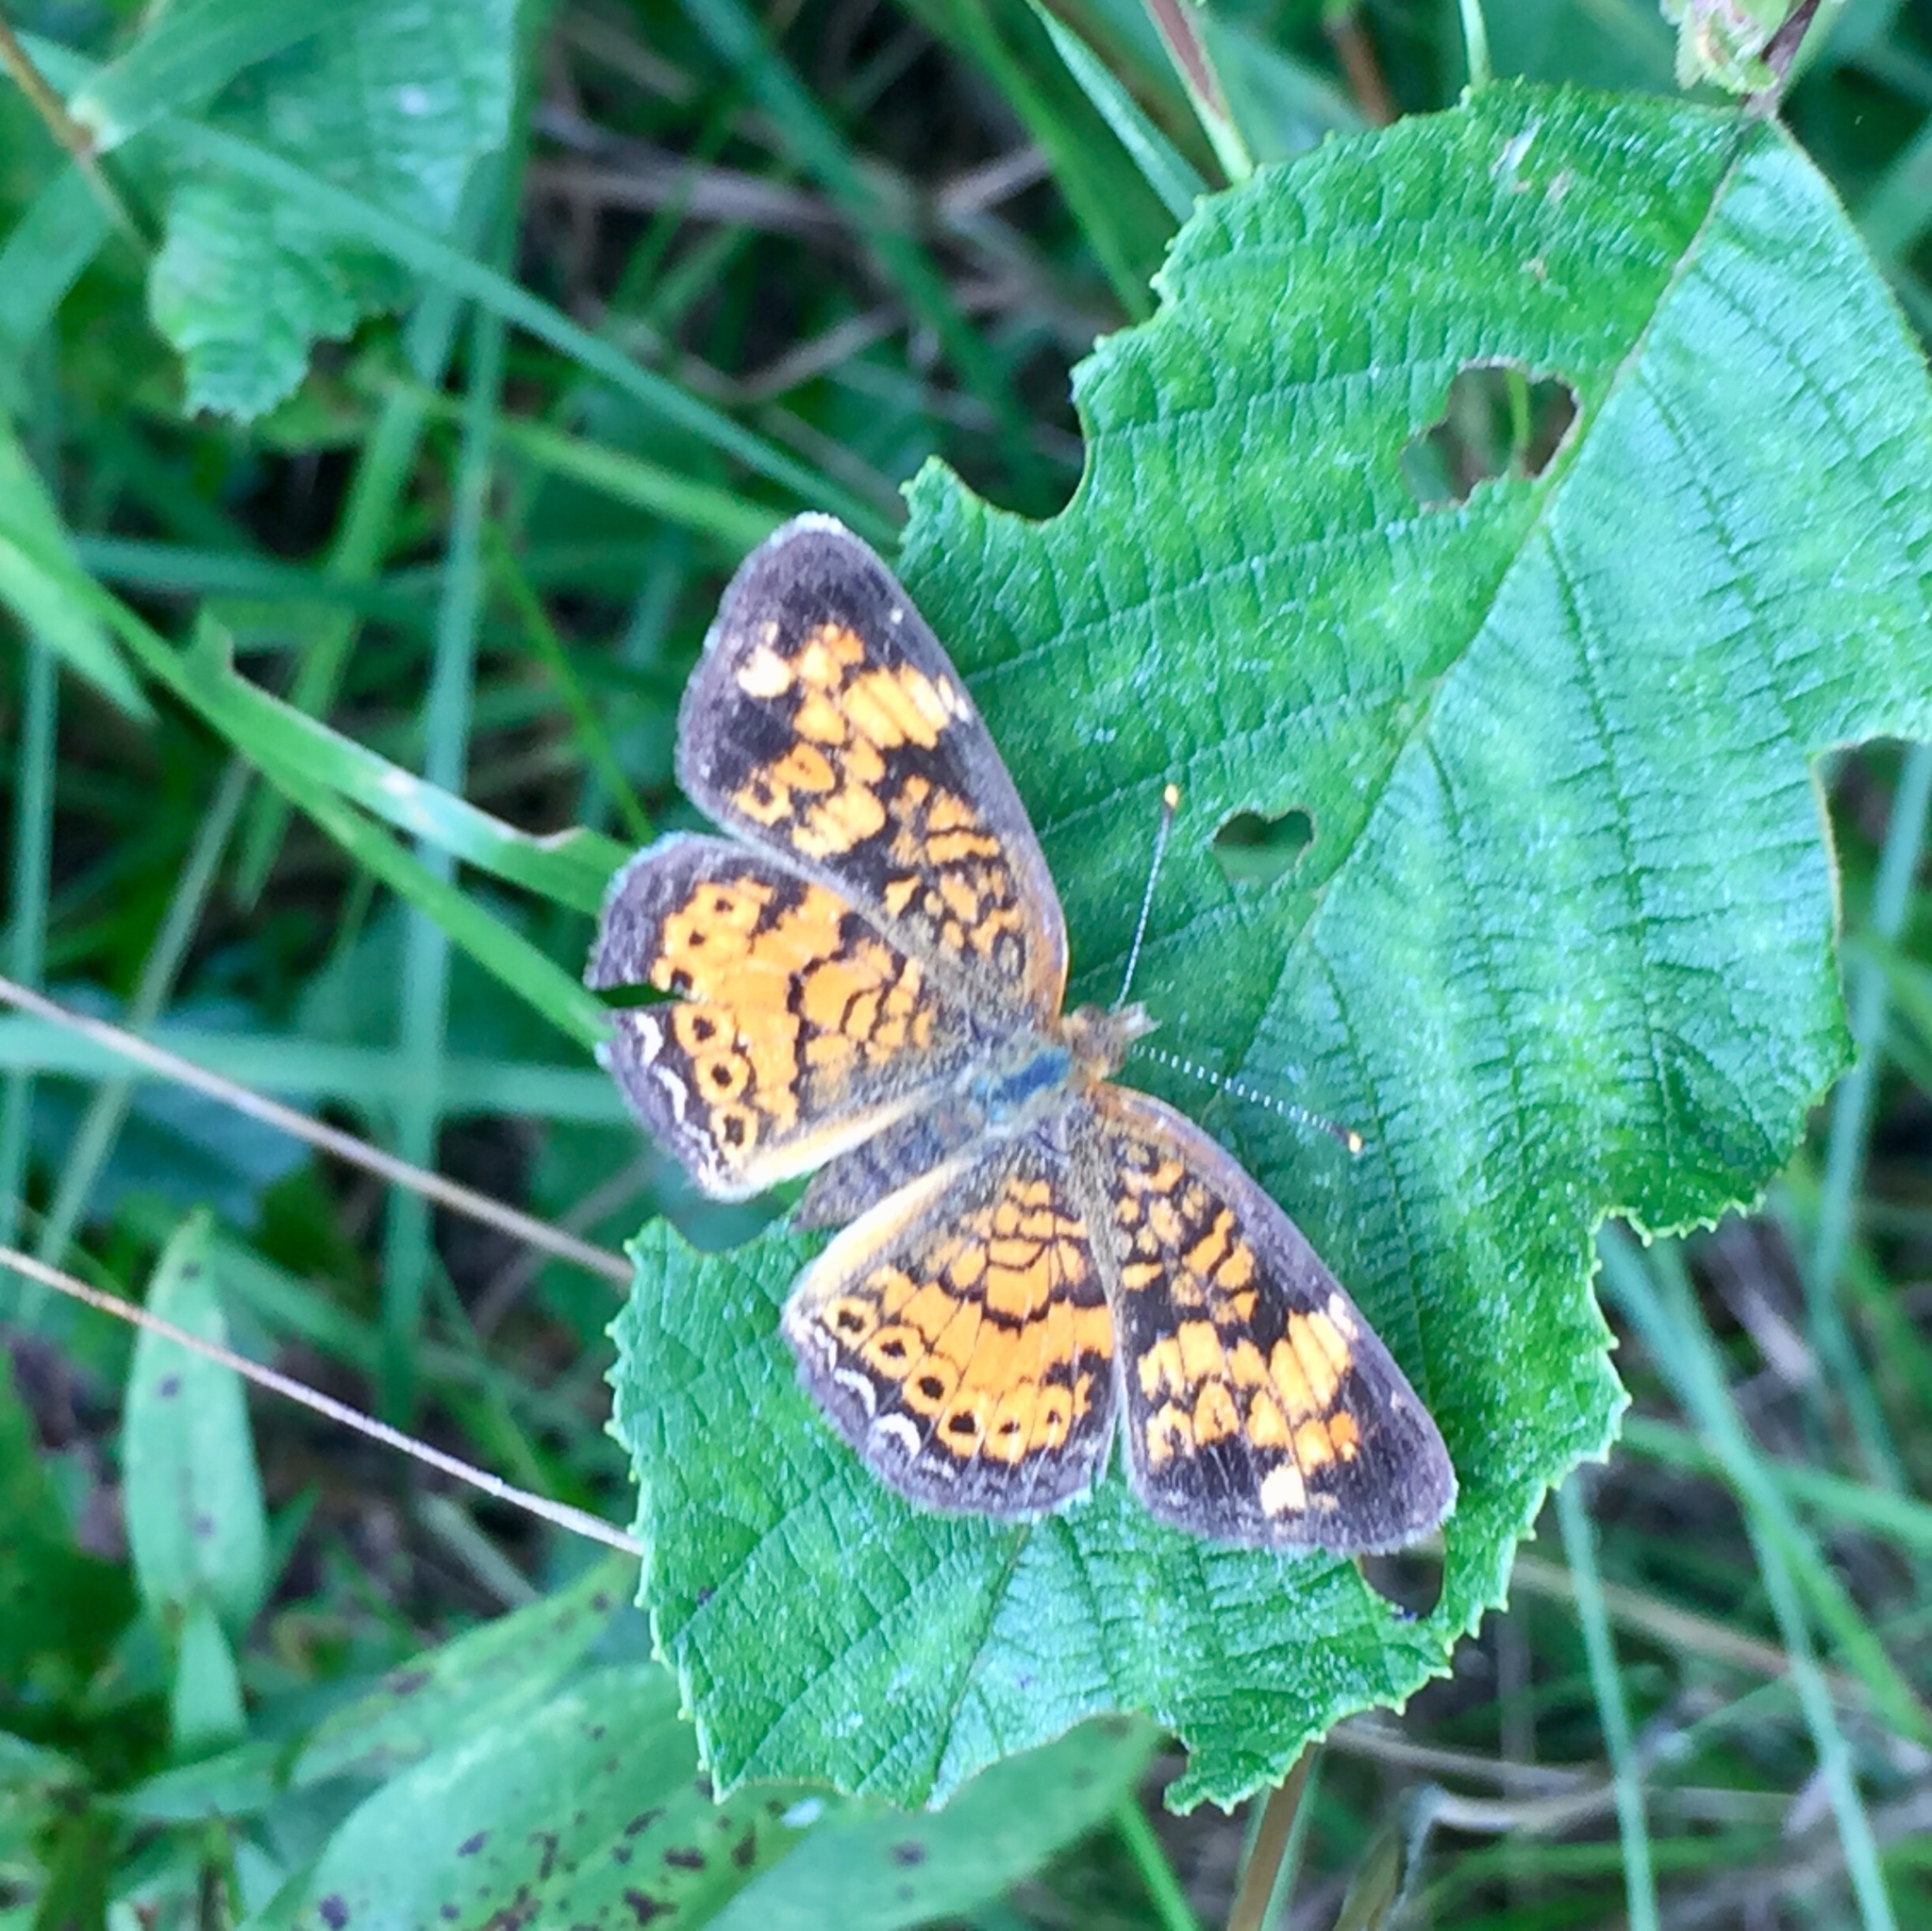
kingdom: Animalia
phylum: Arthropoda
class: Insecta
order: Lepidoptera
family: Nymphalidae
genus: Phyciodes
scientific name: Phyciodes tharos
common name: Pearl crescent
